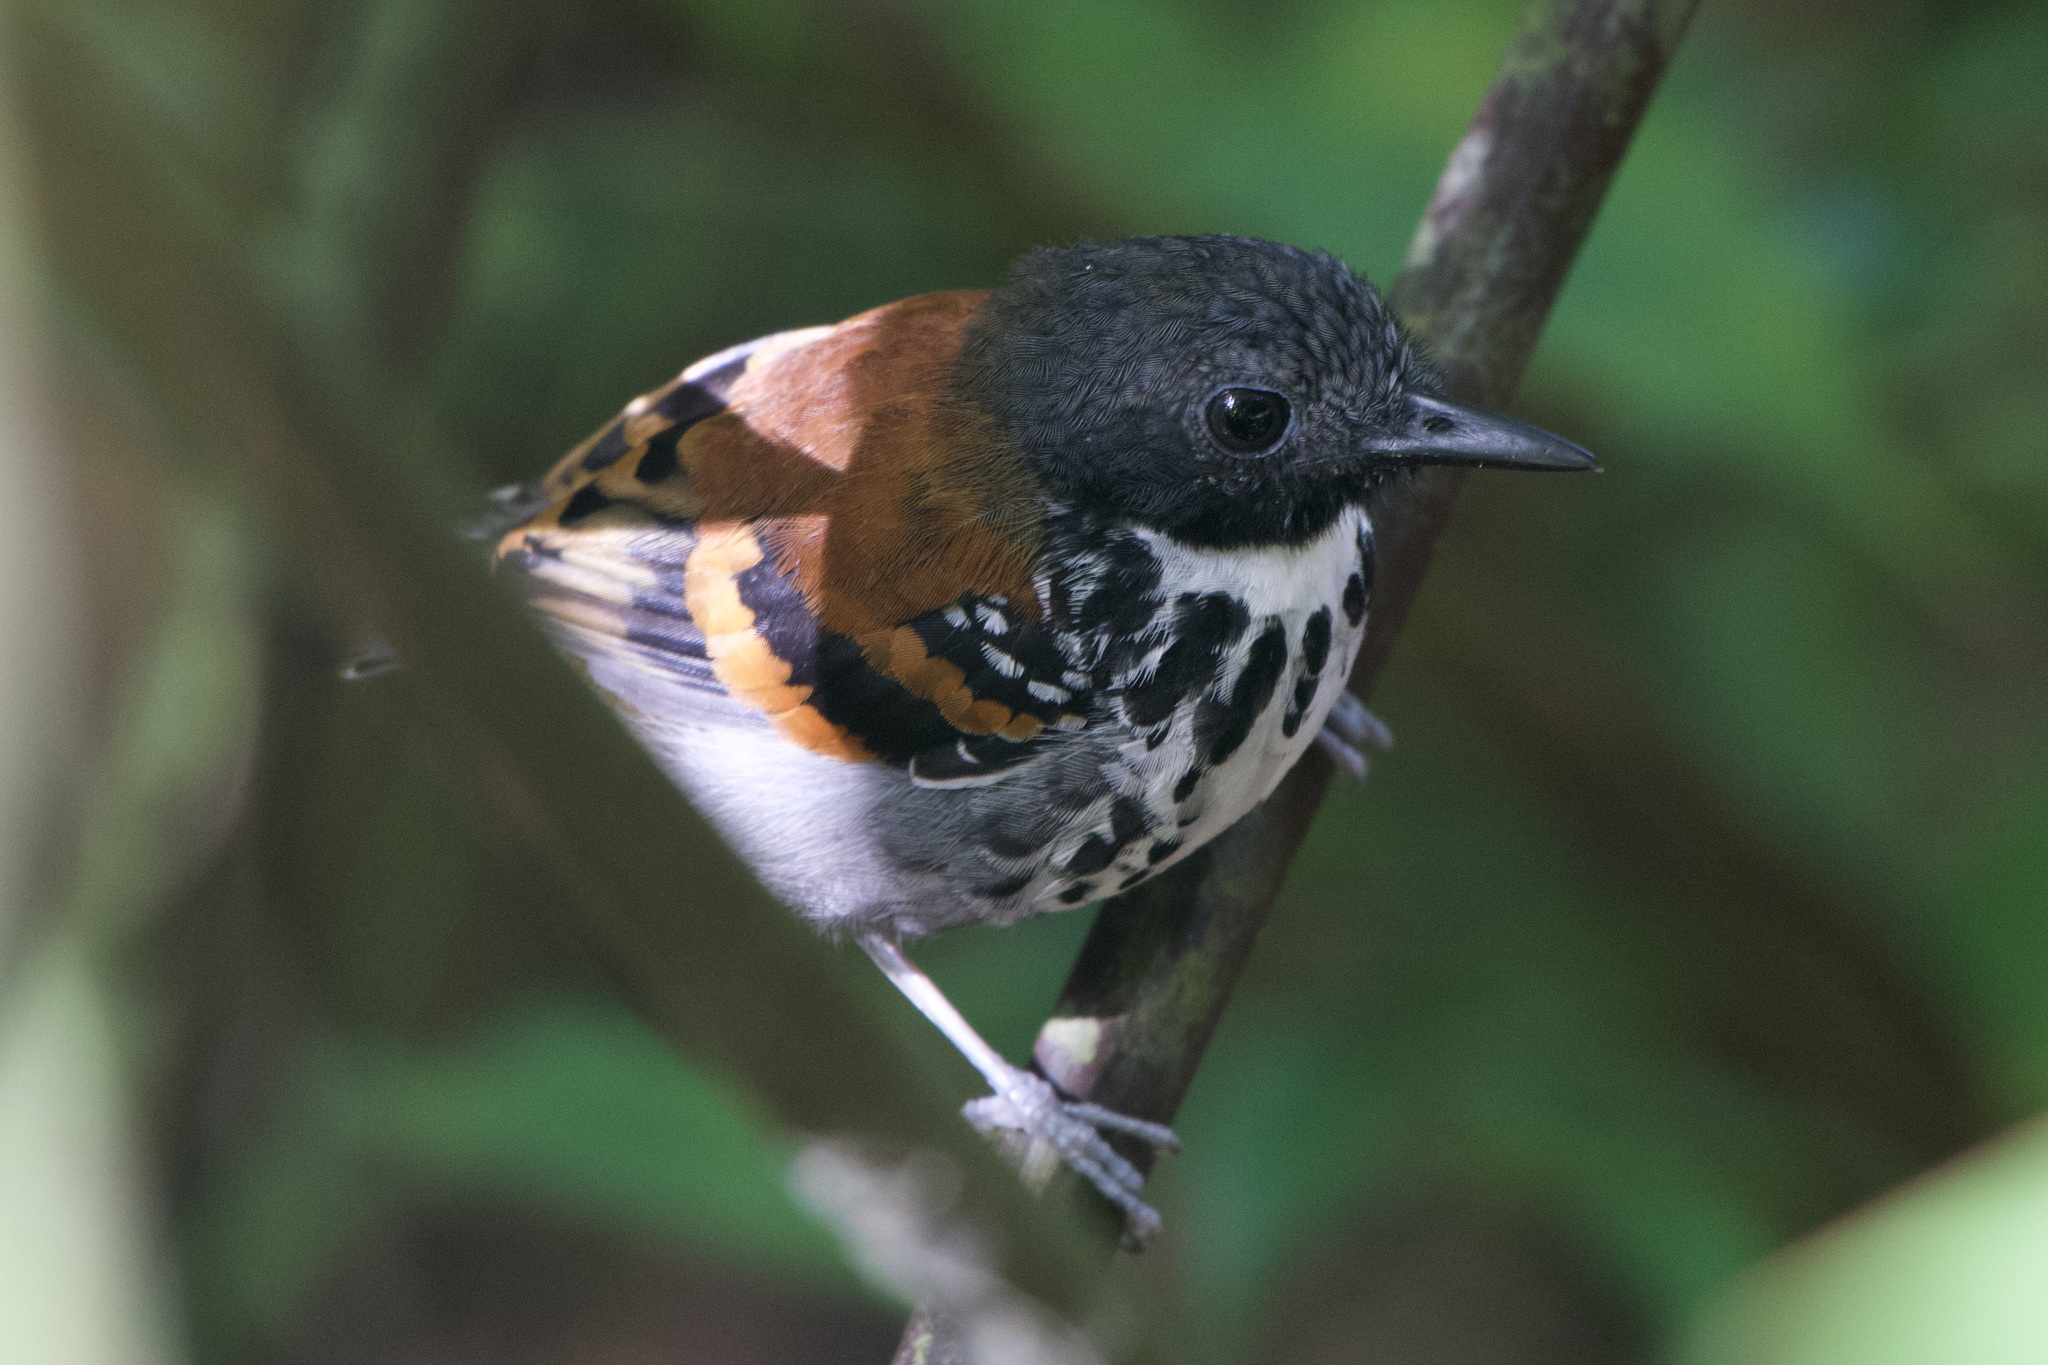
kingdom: Animalia
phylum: Chordata
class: Aves
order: Passeriformes
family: Thamnophilidae
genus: Hylophylax
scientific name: Hylophylax naevioides
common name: Spotted antbird
